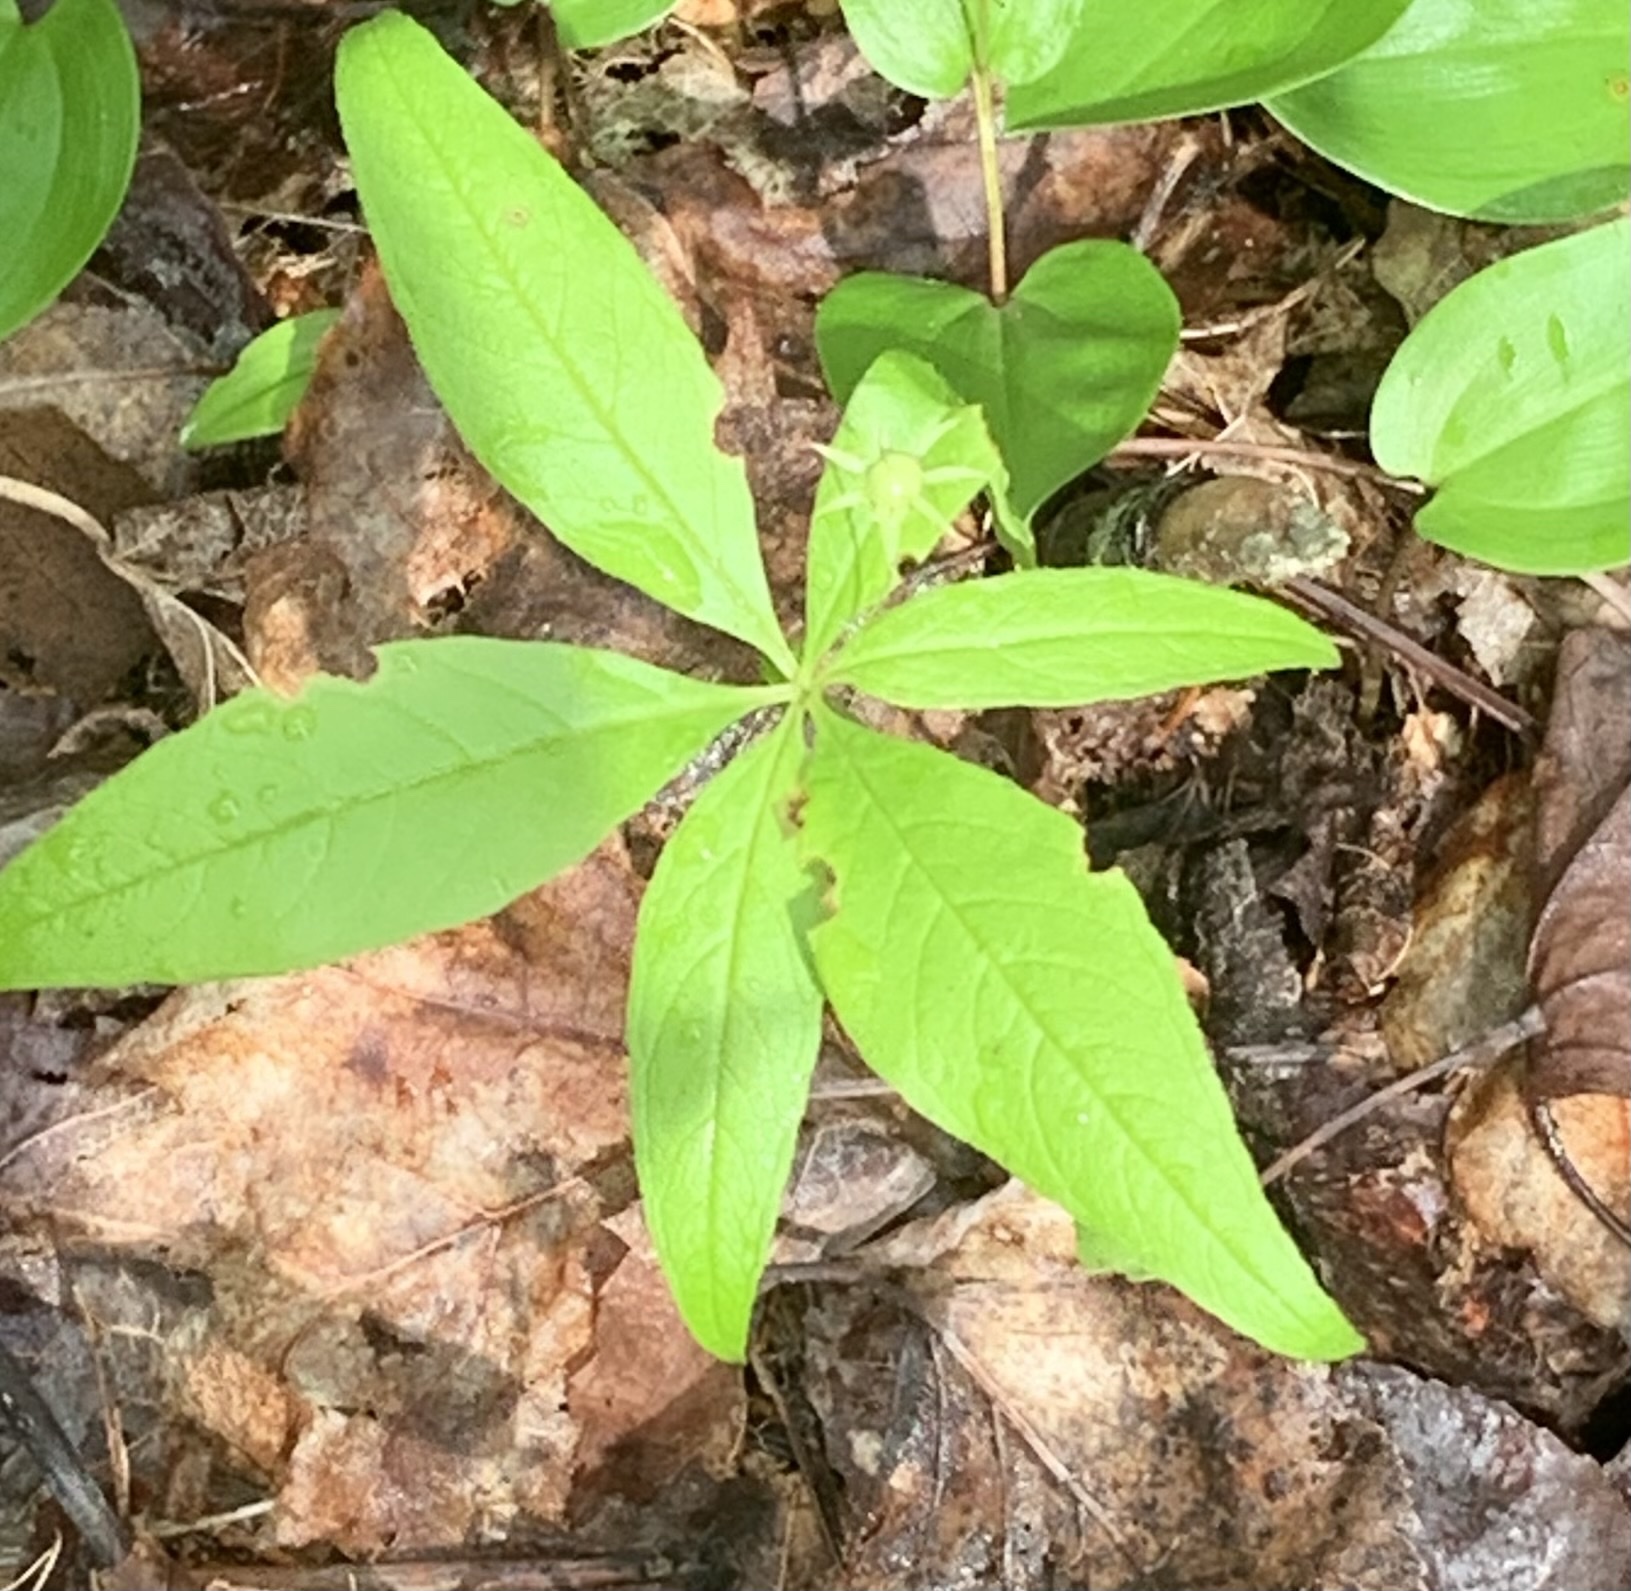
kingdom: Plantae
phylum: Tracheophyta
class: Magnoliopsida
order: Ericales
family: Primulaceae
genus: Lysimachia
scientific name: Lysimachia borealis
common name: American starflower
